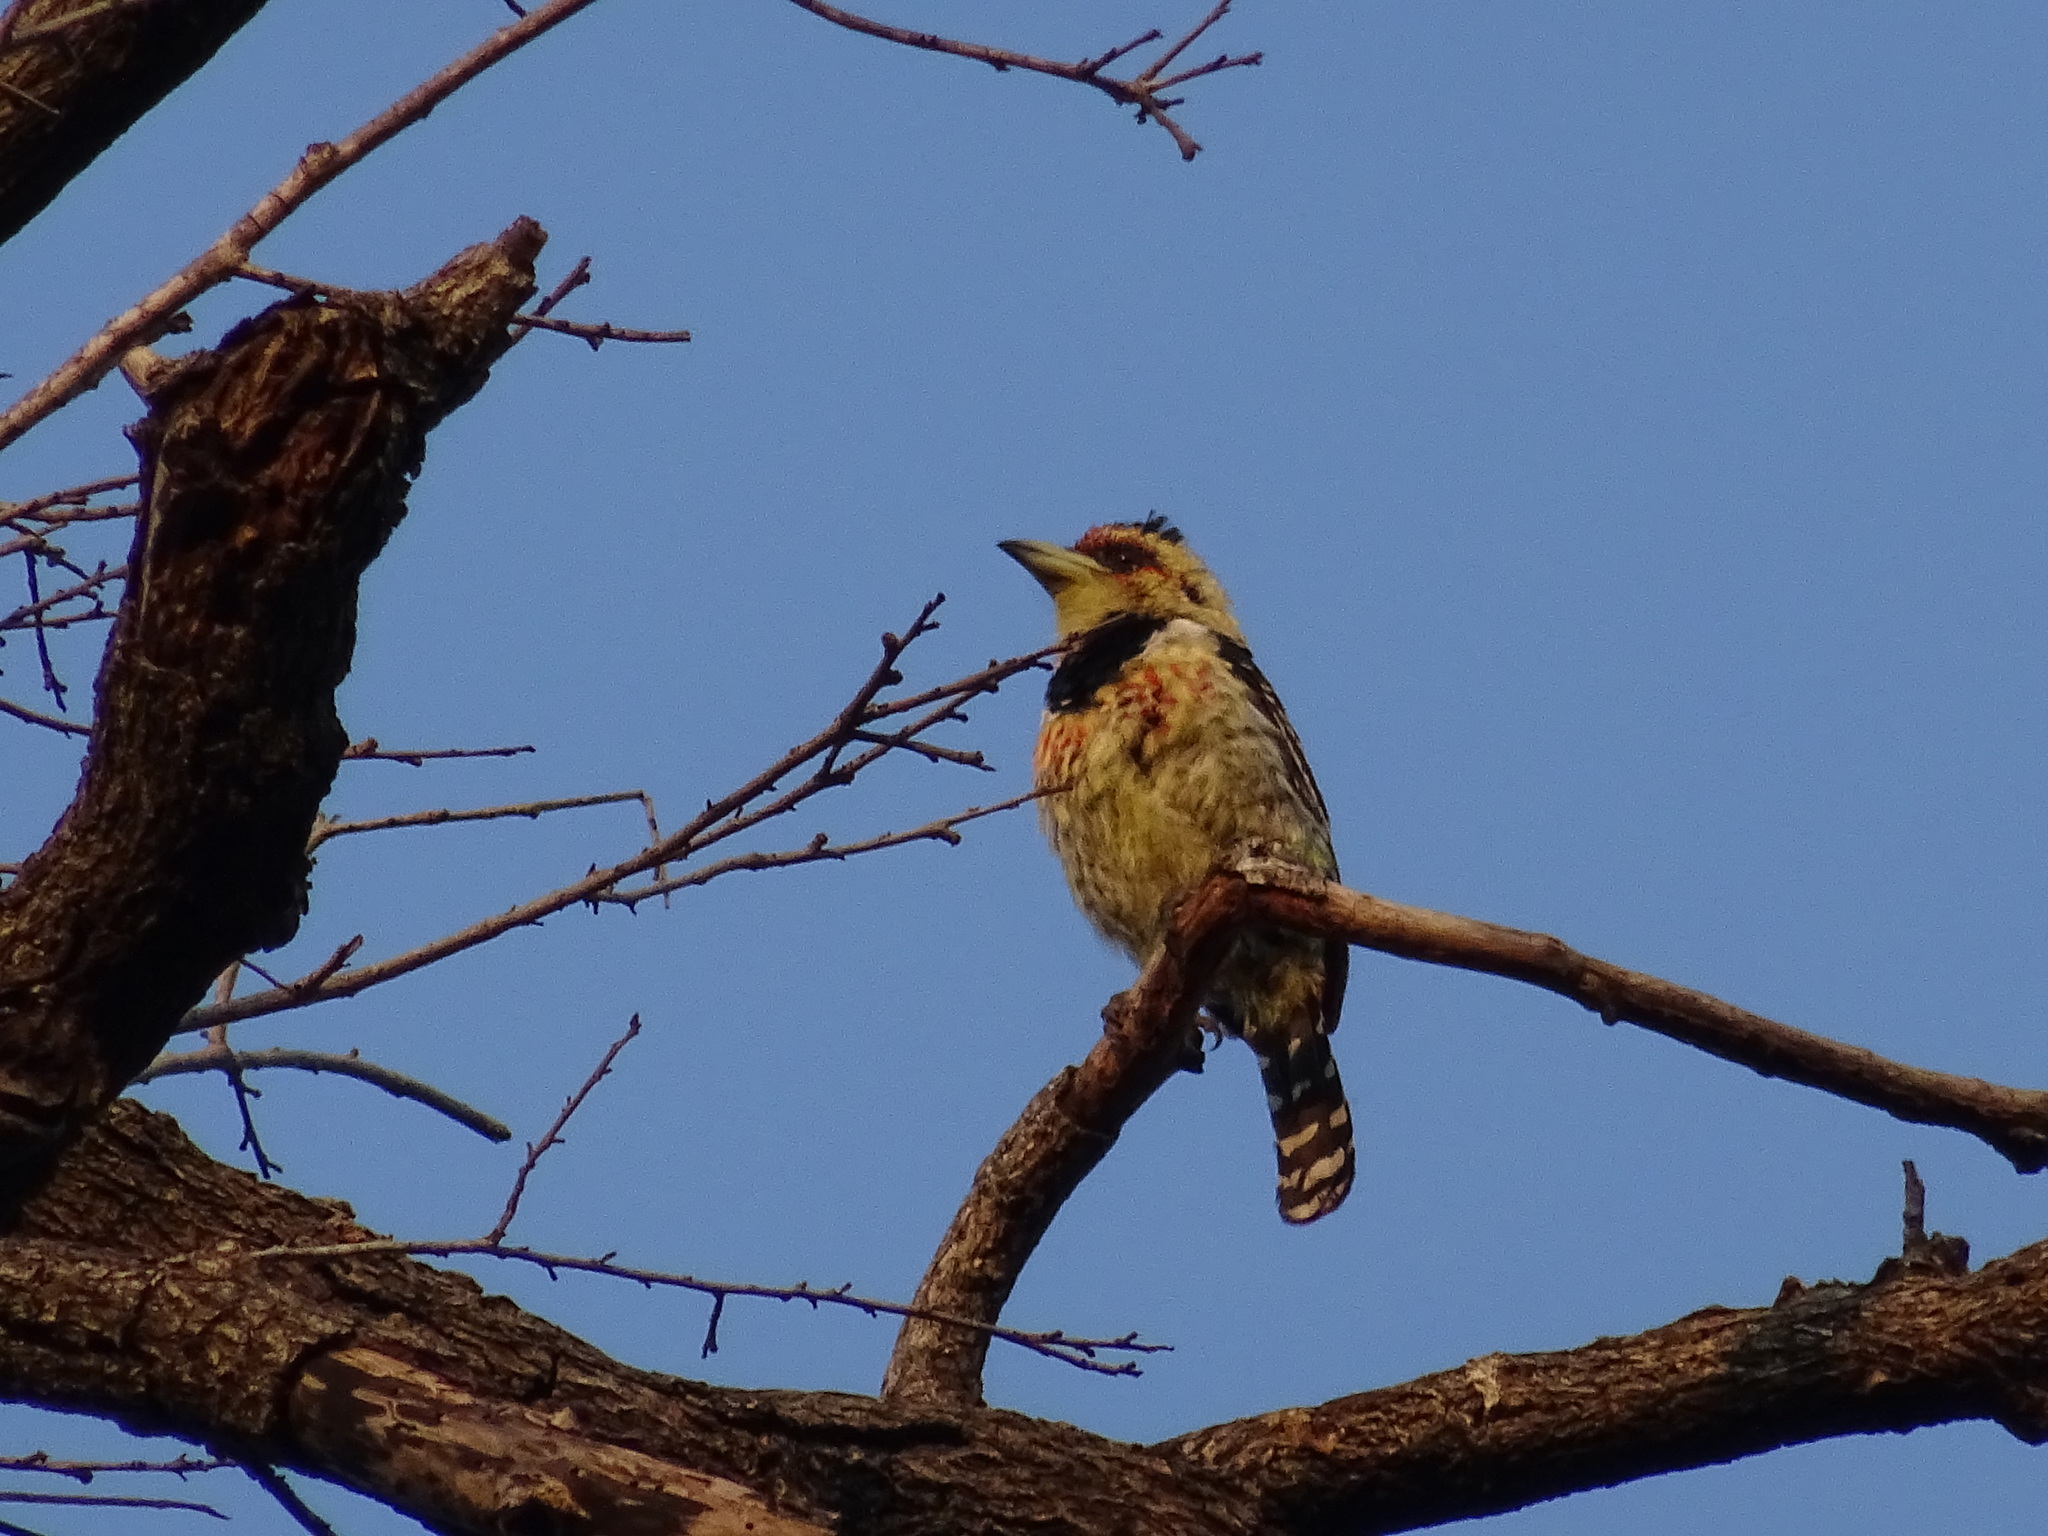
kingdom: Animalia
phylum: Chordata
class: Aves
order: Piciformes
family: Lybiidae
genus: Trachyphonus
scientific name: Trachyphonus vaillantii
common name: Crested barbet
